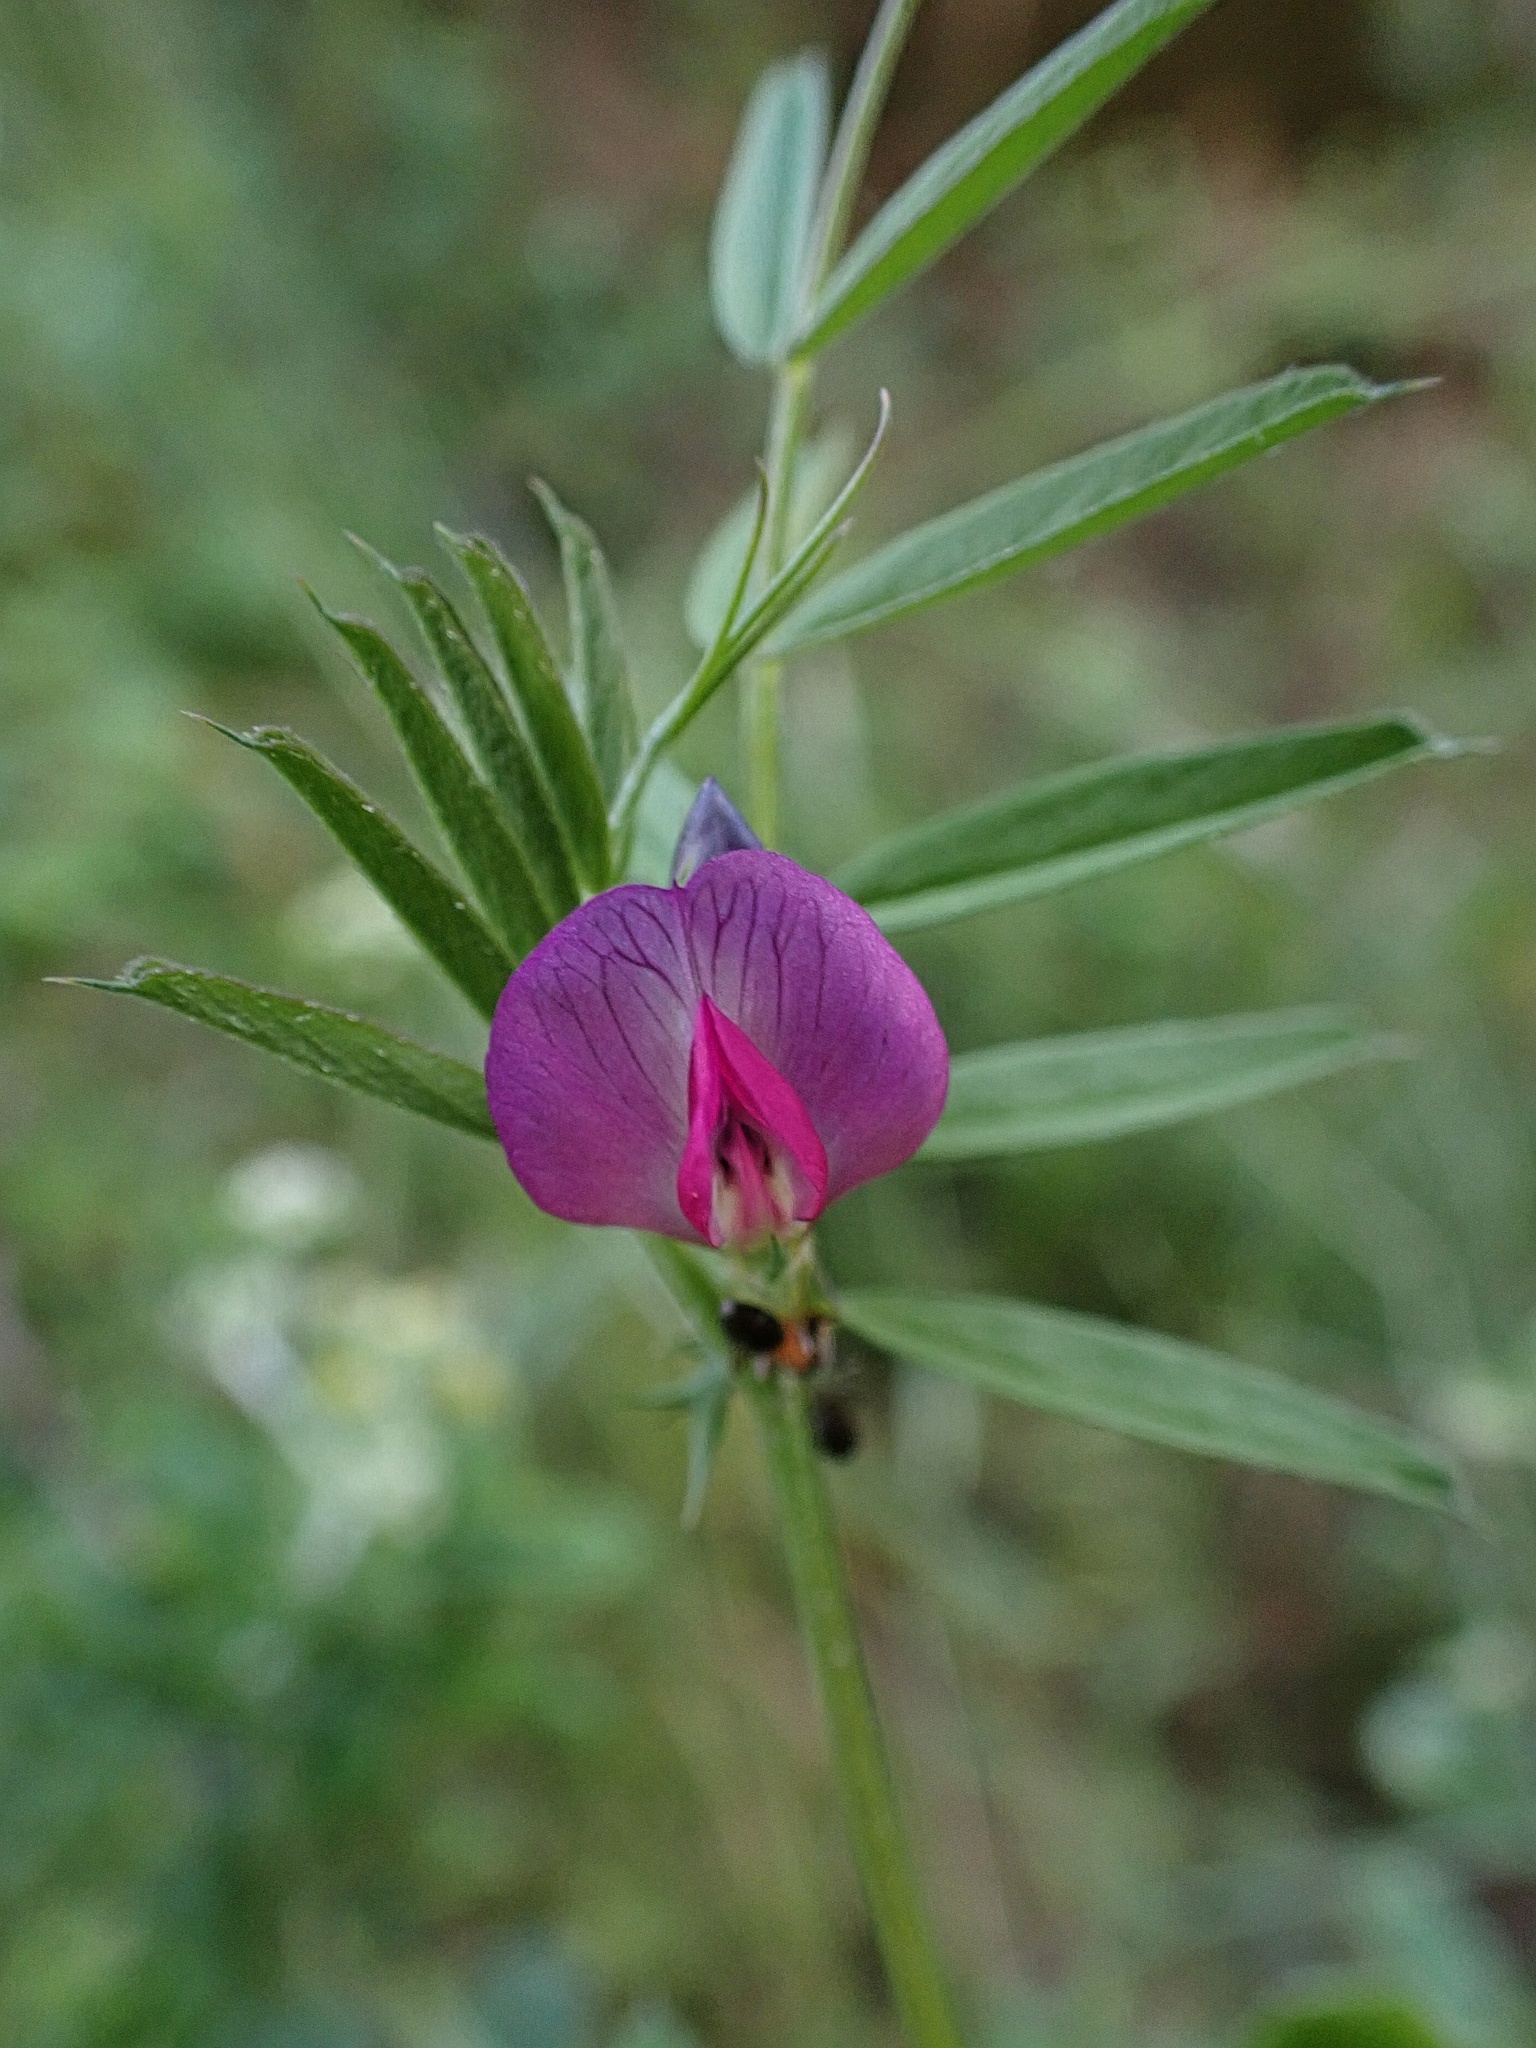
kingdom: Plantae
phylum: Tracheophyta
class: Magnoliopsida
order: Fabales
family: Fabaceae
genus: Vicia
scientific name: Vicia sativa
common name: Garden vetch
